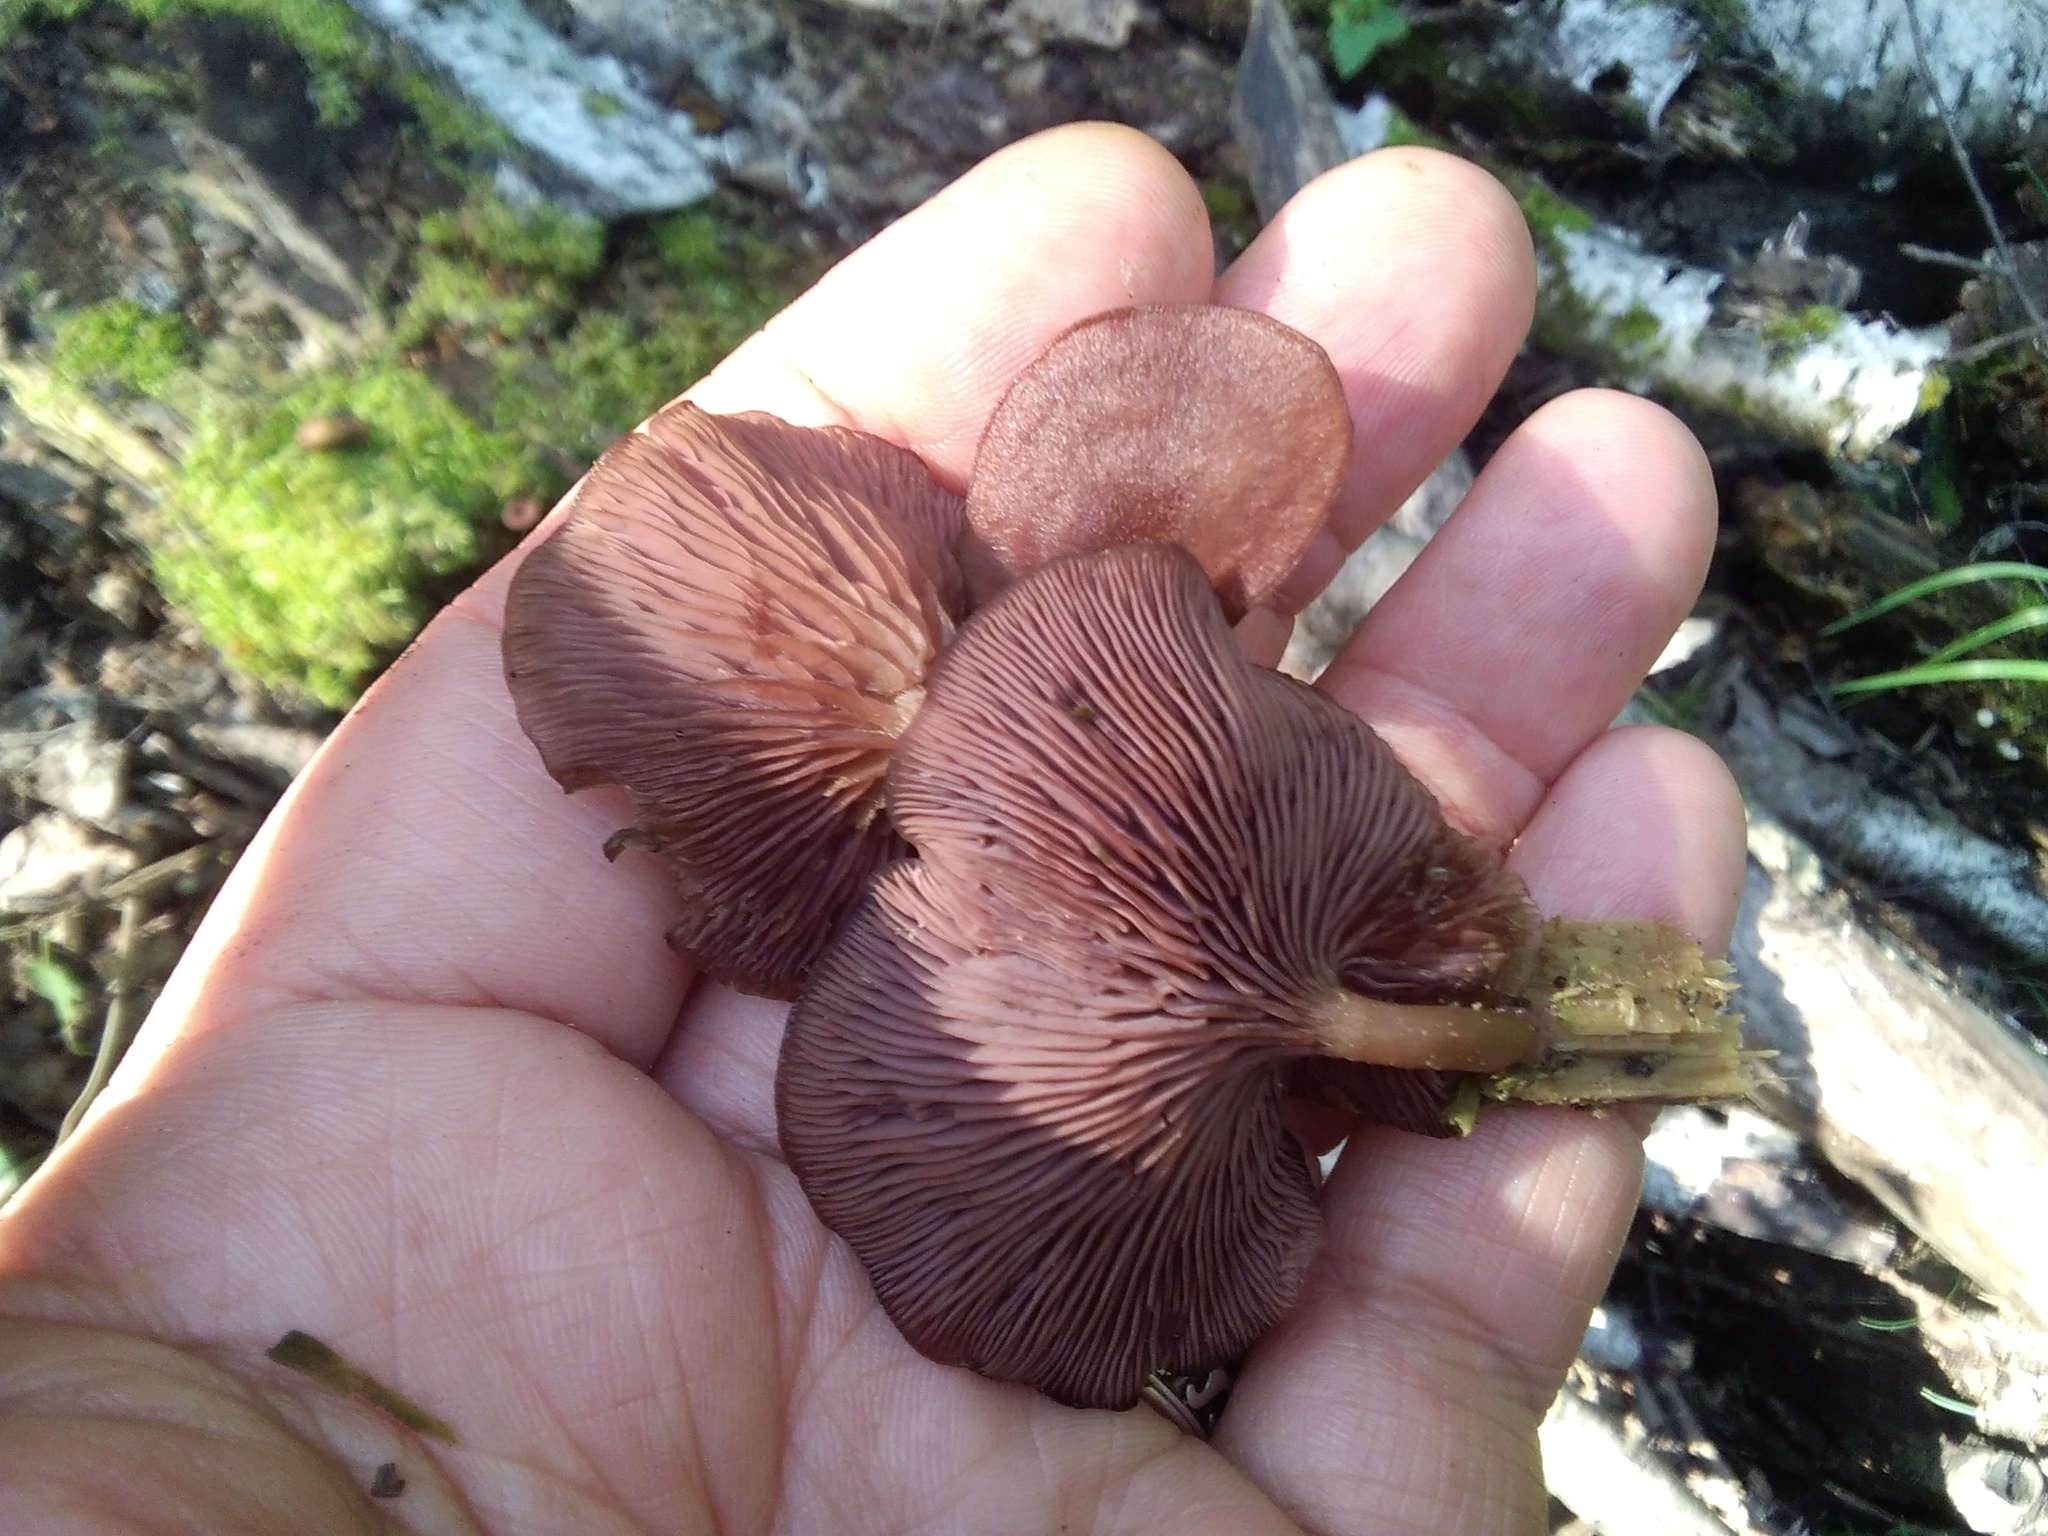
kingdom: Fungi
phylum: Basidiomycota
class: Agaricomycetes
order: Agaricales
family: Hygrophoraceae
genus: Arrhenia
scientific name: Arrhenia discorosea
